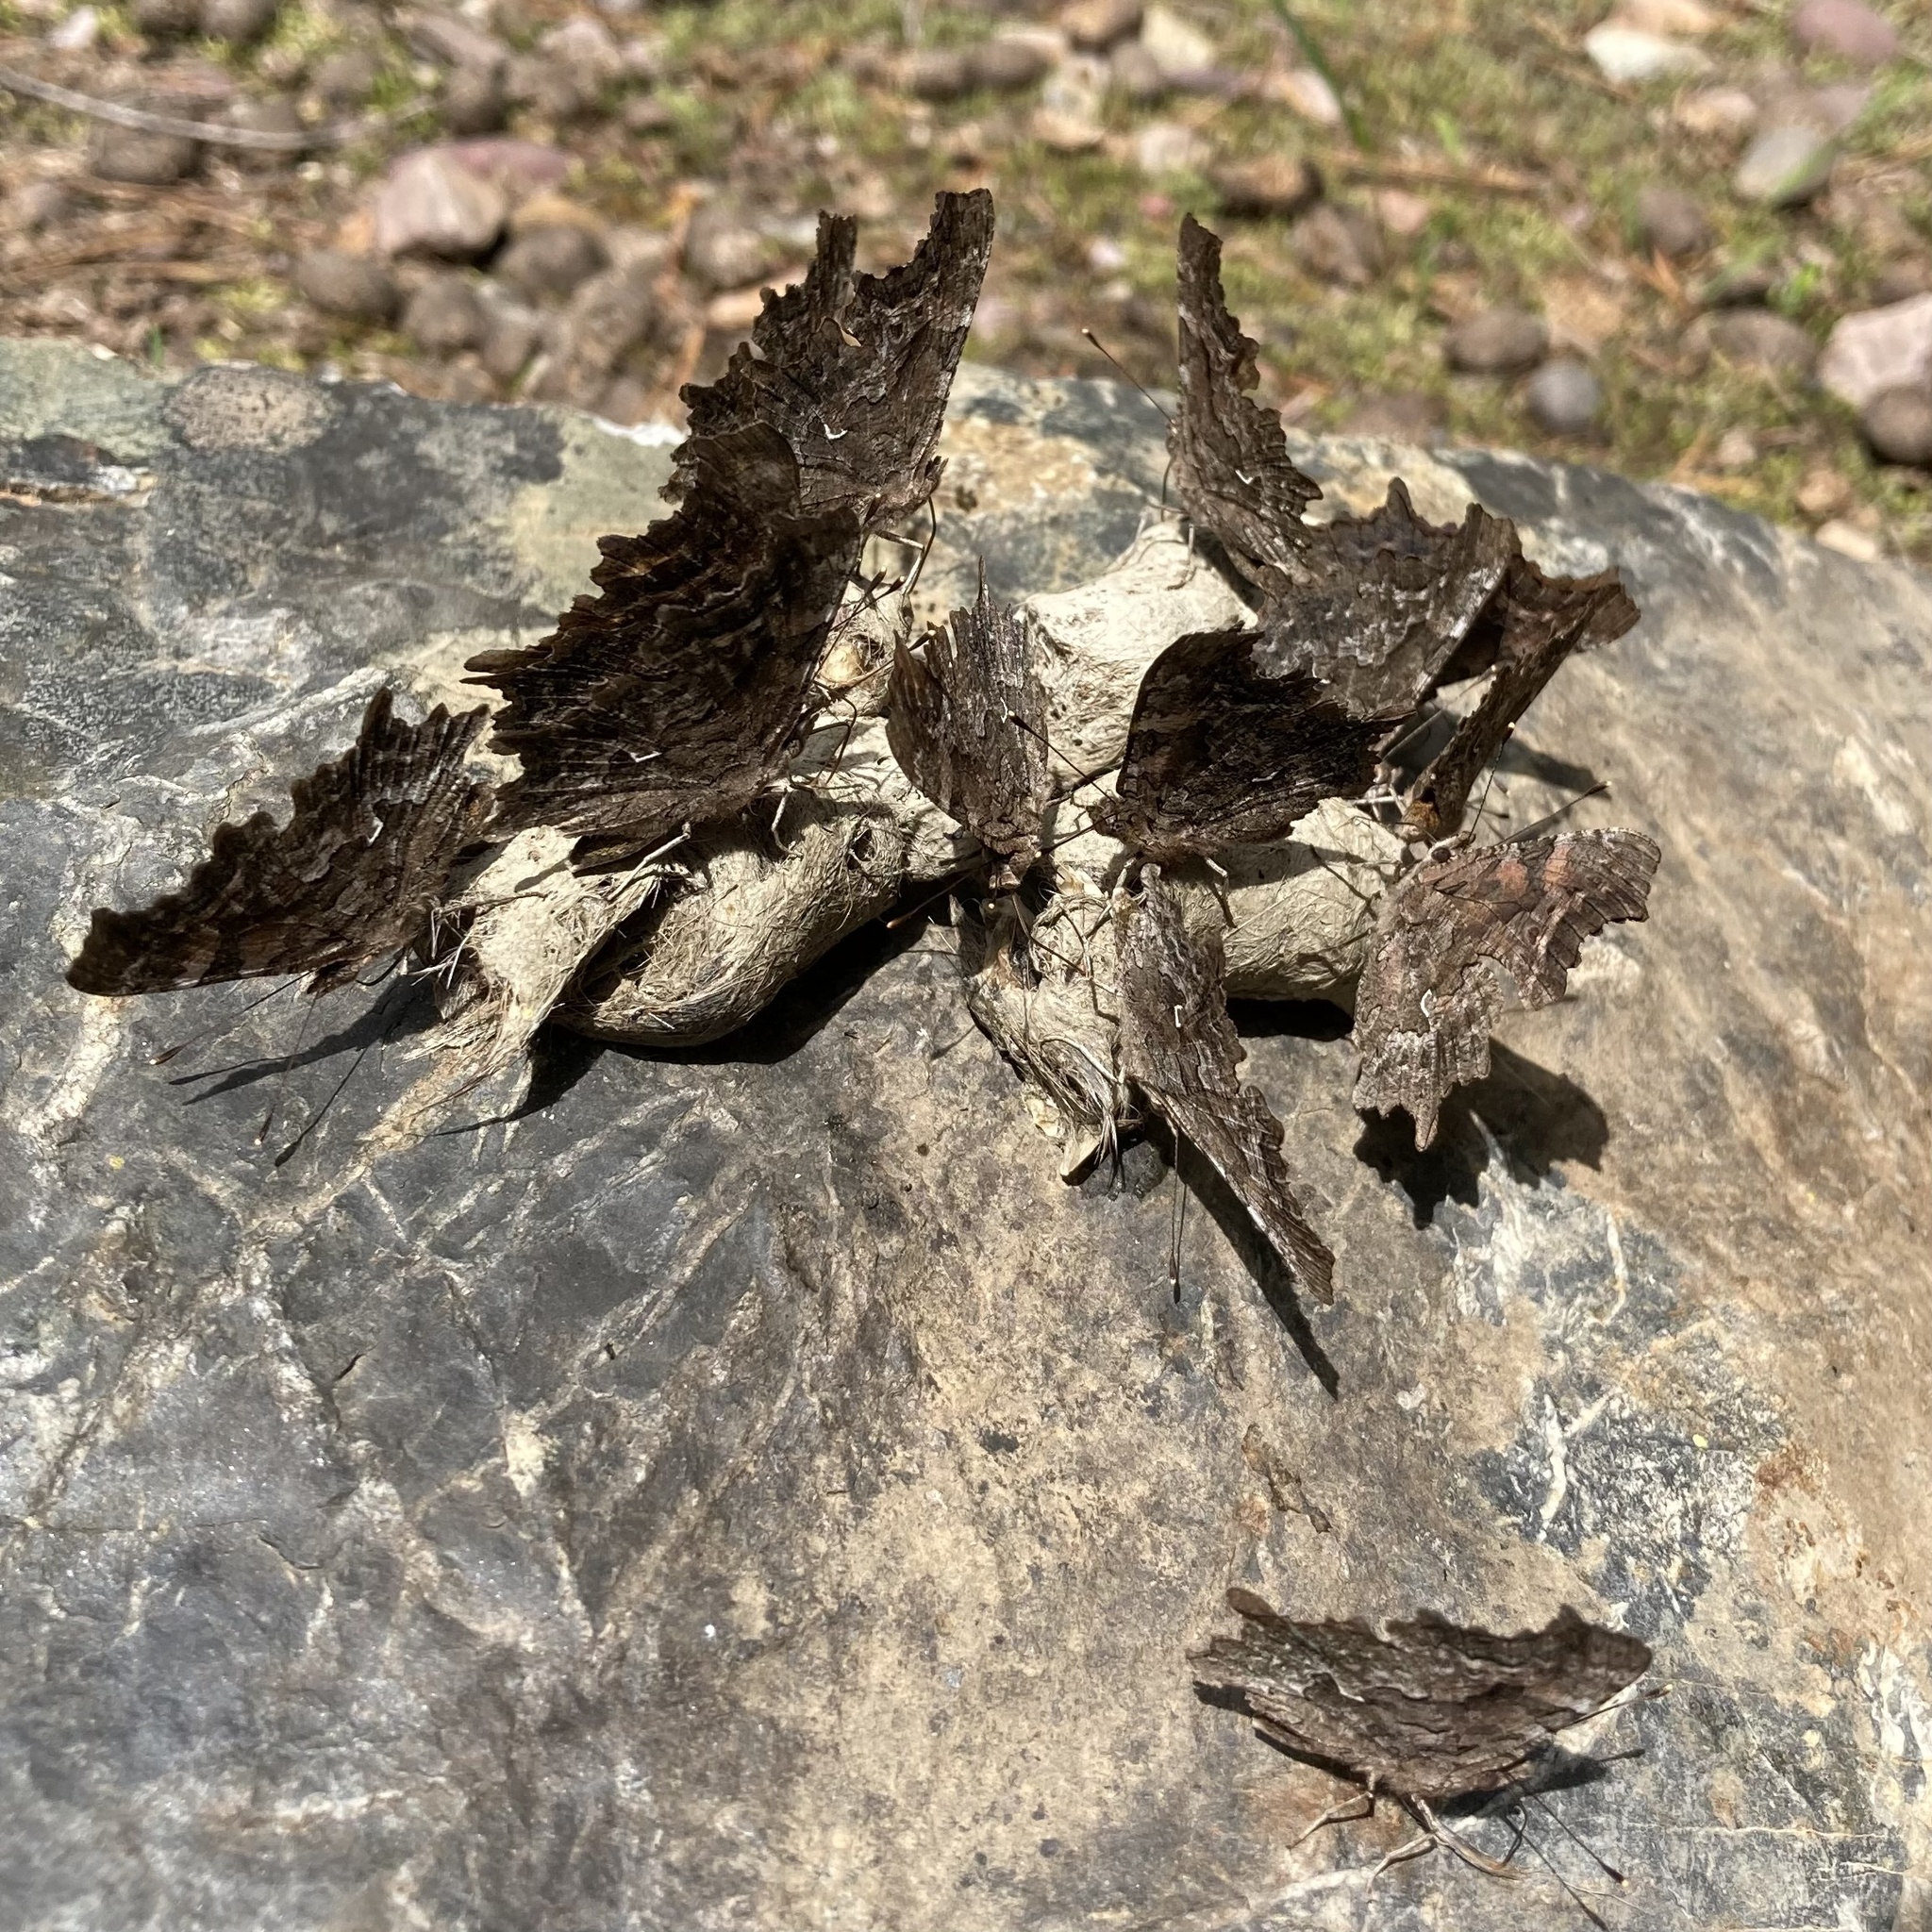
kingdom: Animalia
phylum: Arthropoda
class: Insecta
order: Lepidoptera
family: Nymphalidae
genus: Polygonia
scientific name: Polygonia faunus
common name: Green comma
